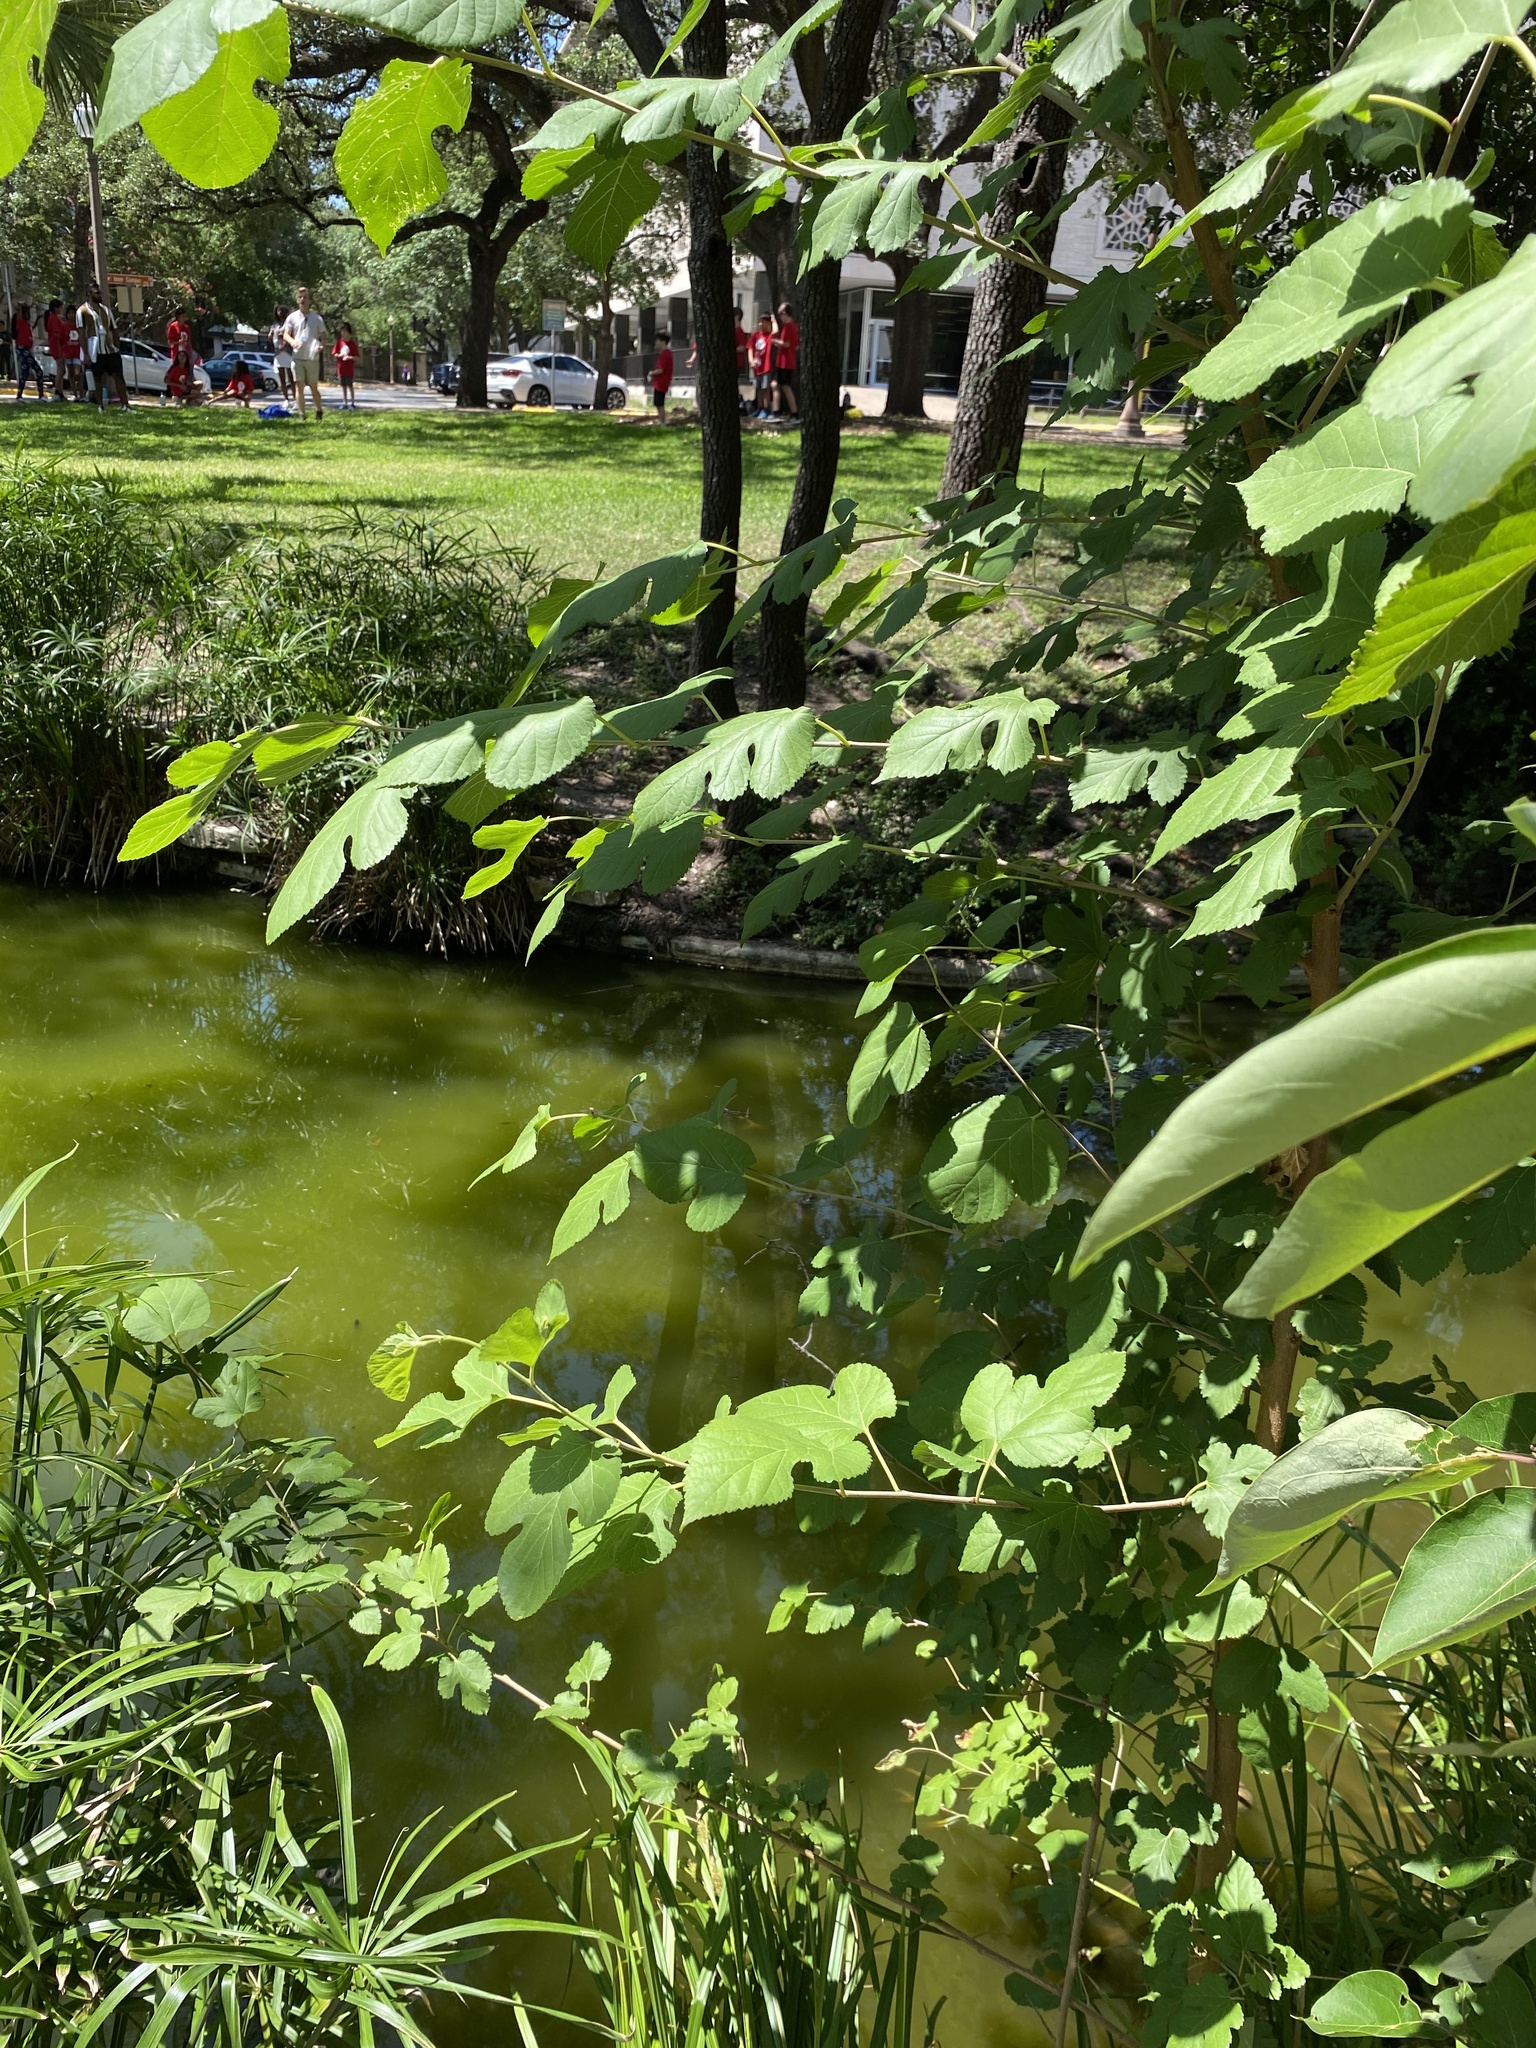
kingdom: Plantae
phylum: Tracheophyta
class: Magnoliopsida
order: Rosales
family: Moraceae
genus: Morus
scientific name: Morus
